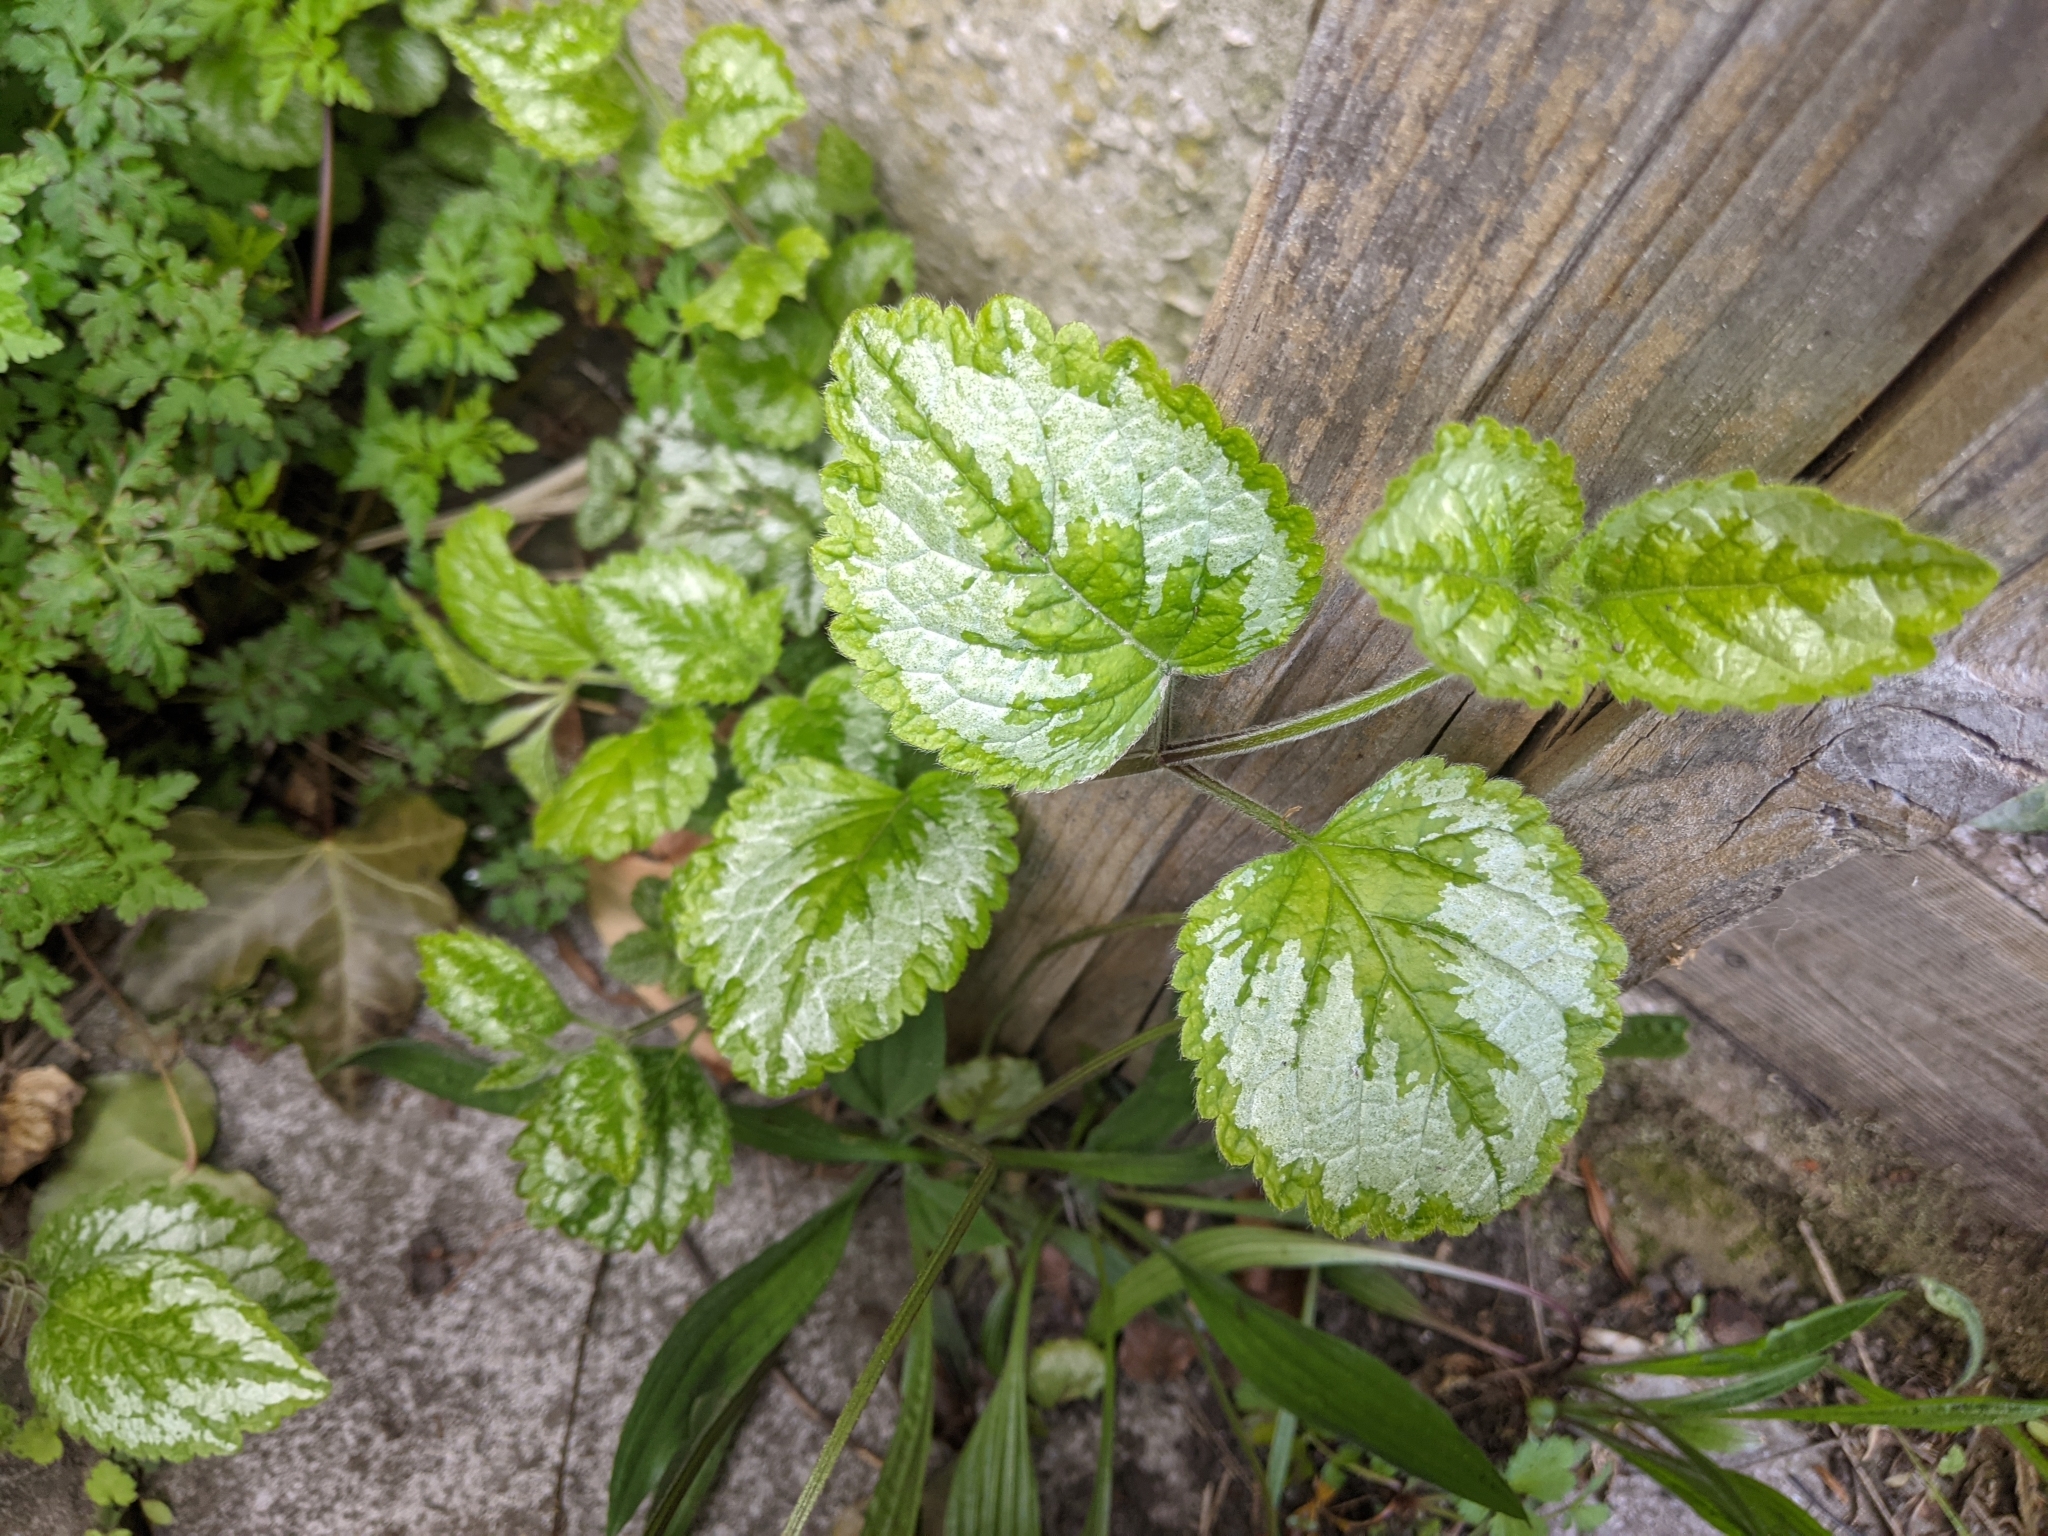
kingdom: Plantae
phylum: Tracheophyta
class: Magnoliopsida
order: Lamiales
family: Lamiaceae
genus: Lamium
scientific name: Lamium galeobdolon
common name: Yellow archangel
